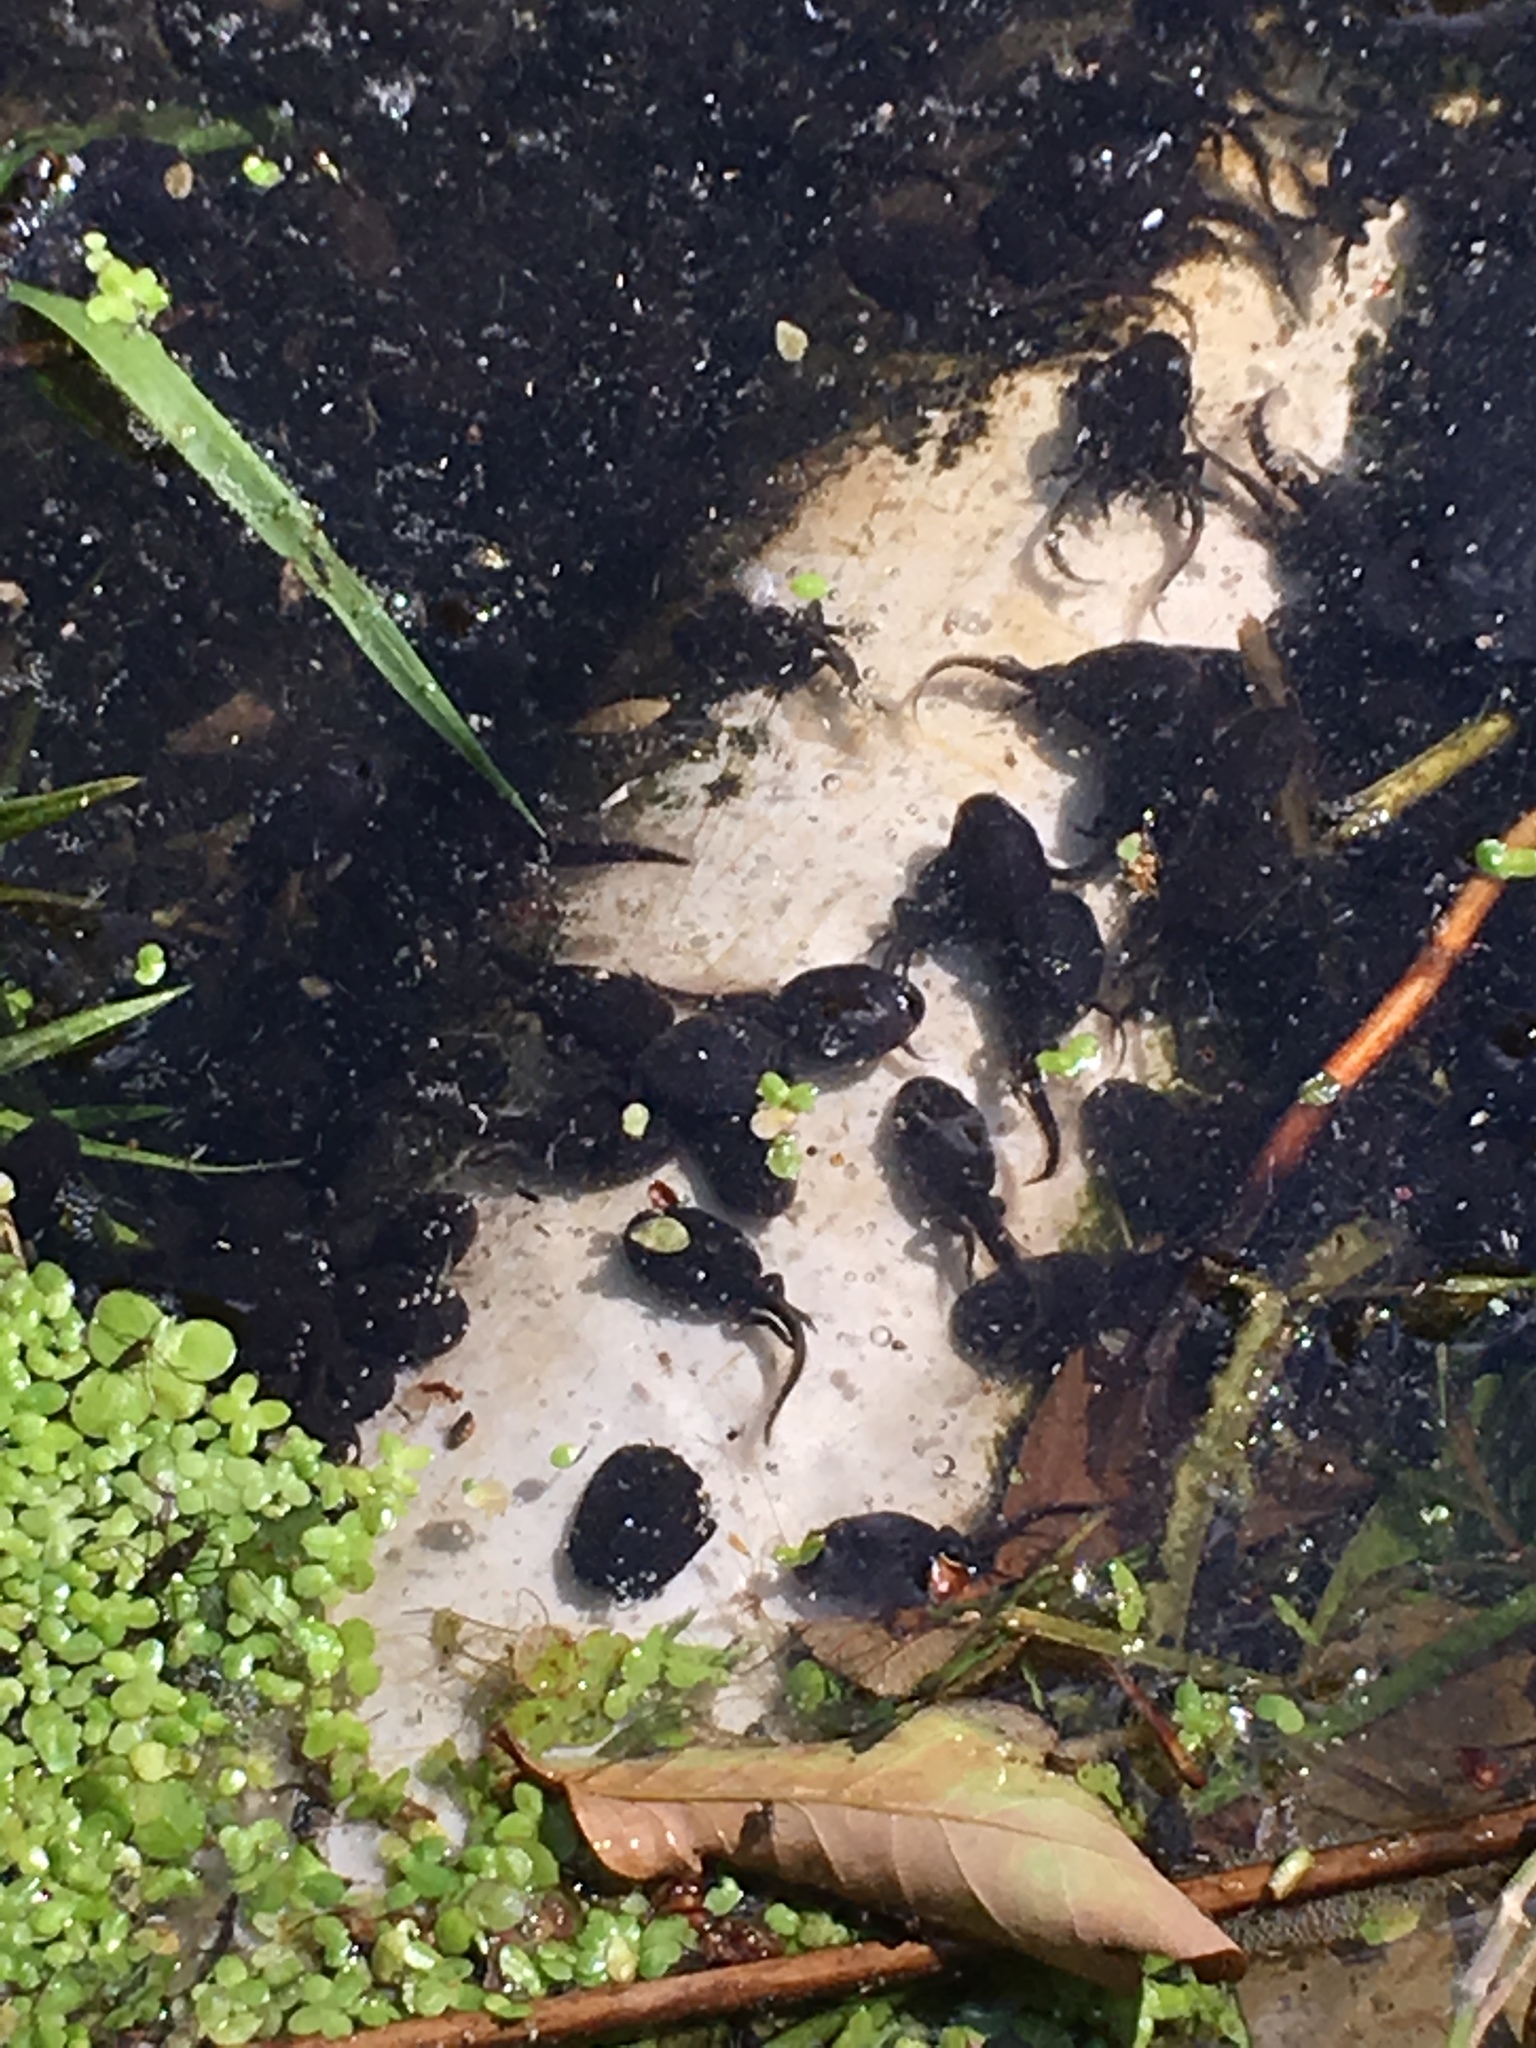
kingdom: Animalia
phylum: Chordata
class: Amphibia
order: Anura
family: Bufonidae
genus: Bufo
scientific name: Bufo bufo
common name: Common toad
